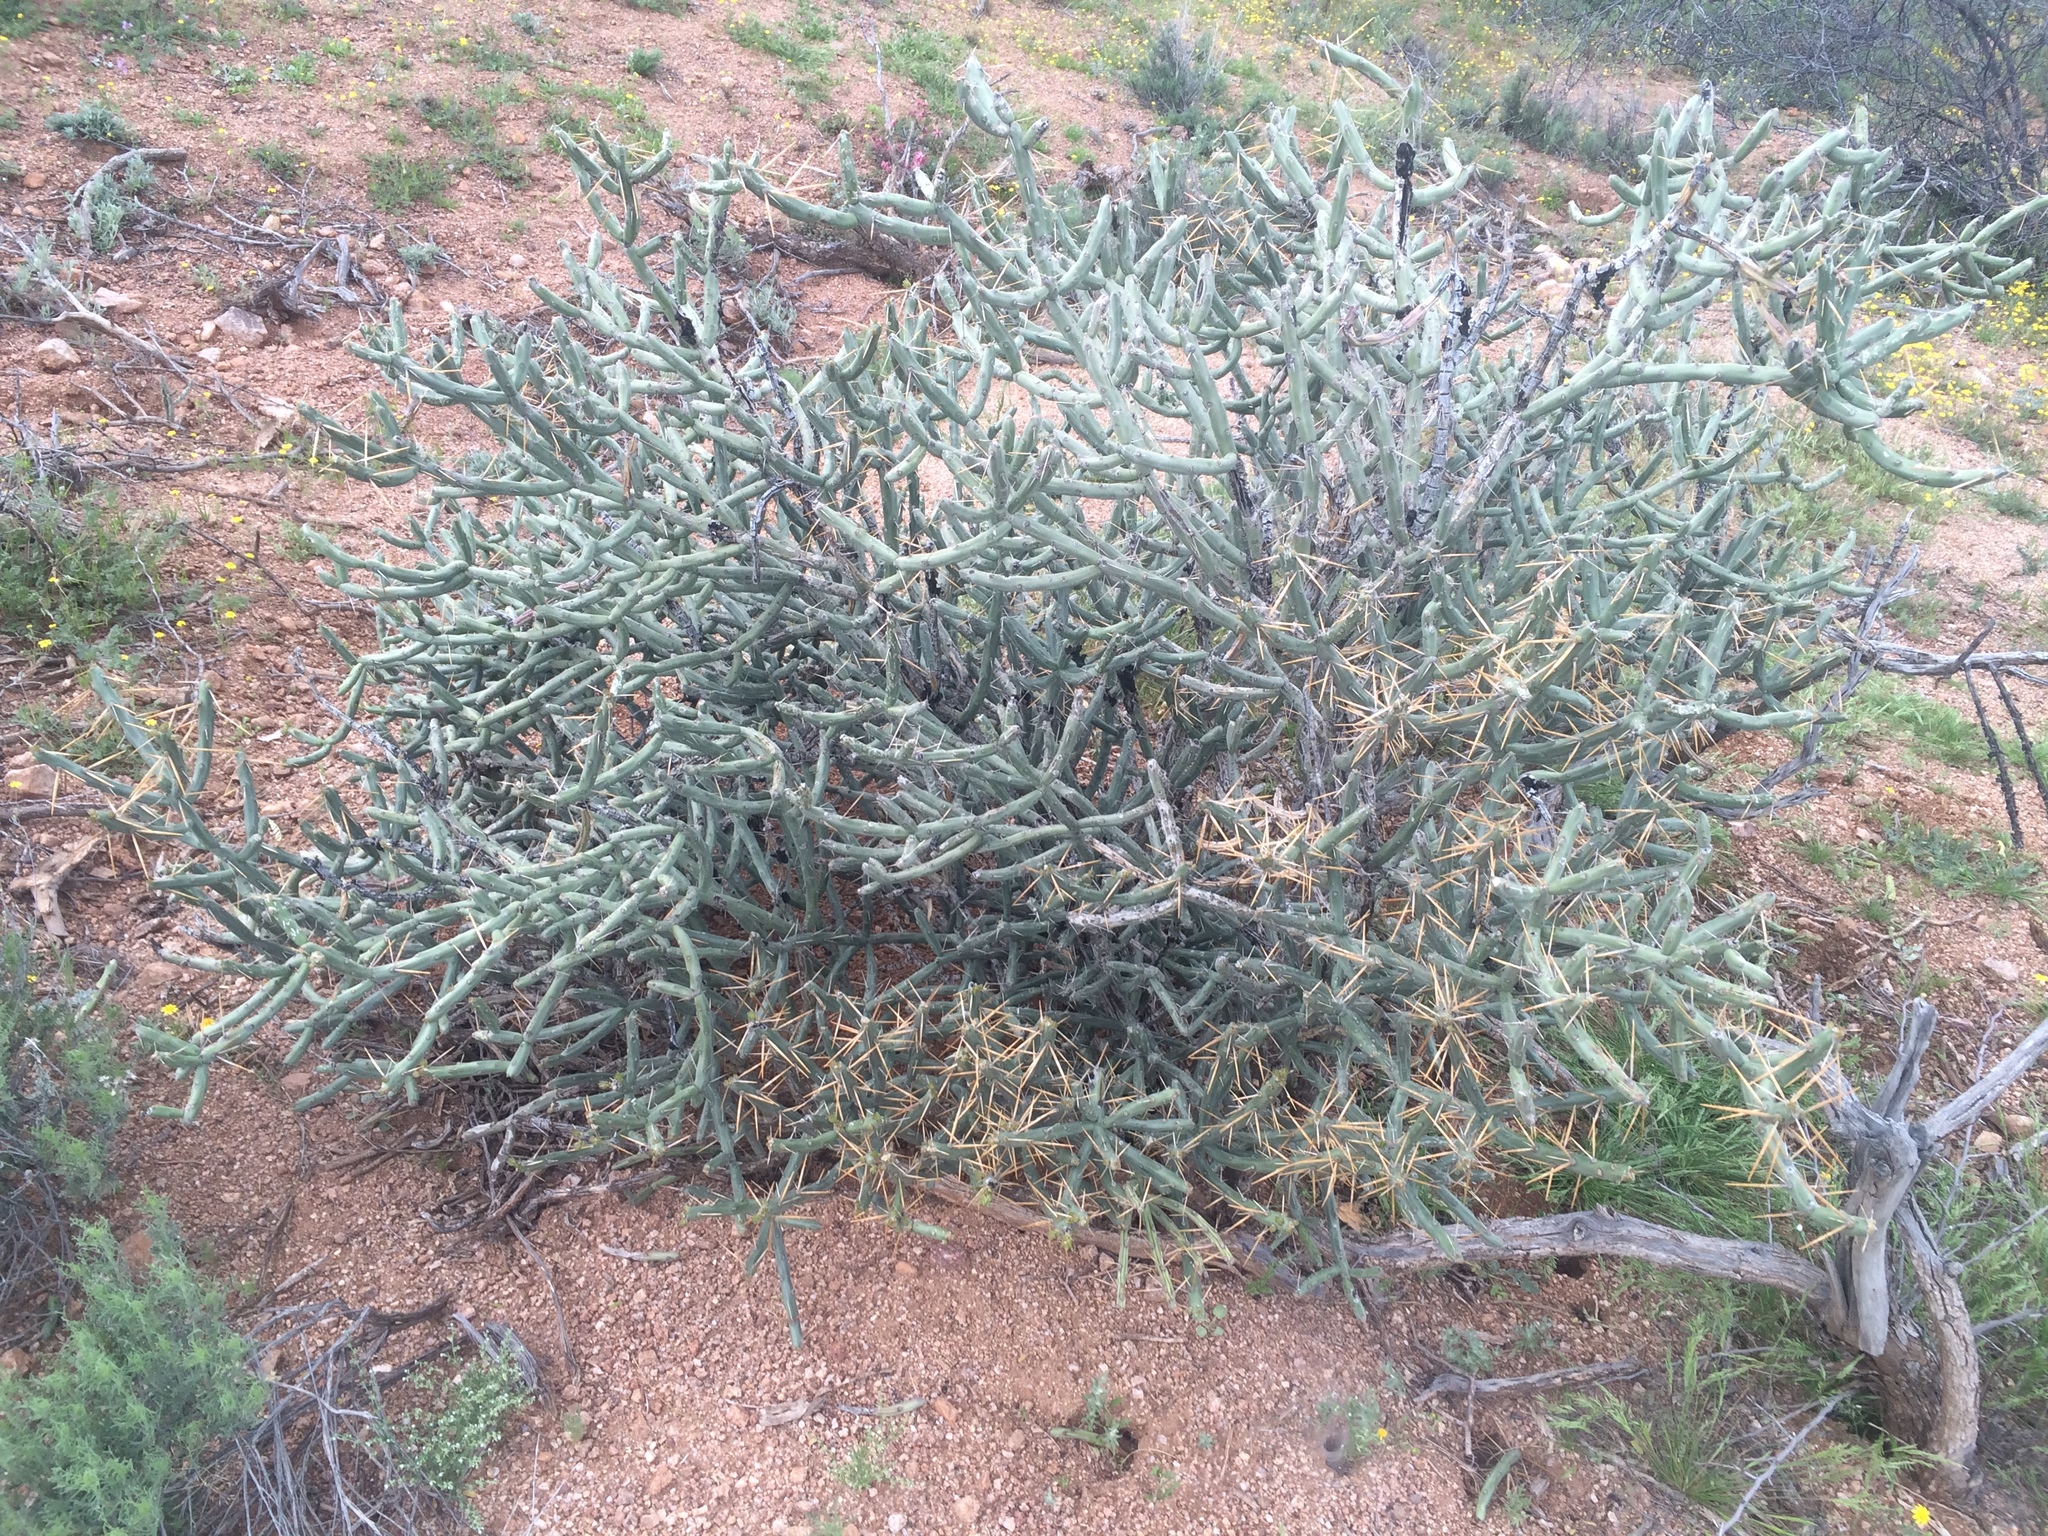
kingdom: Plantae
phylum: Tracheophyta
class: Magnoliopsida
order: Caryophyllales
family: Cactaceae
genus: Cylindropuntia
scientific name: Cylindropuntia arbuscula
